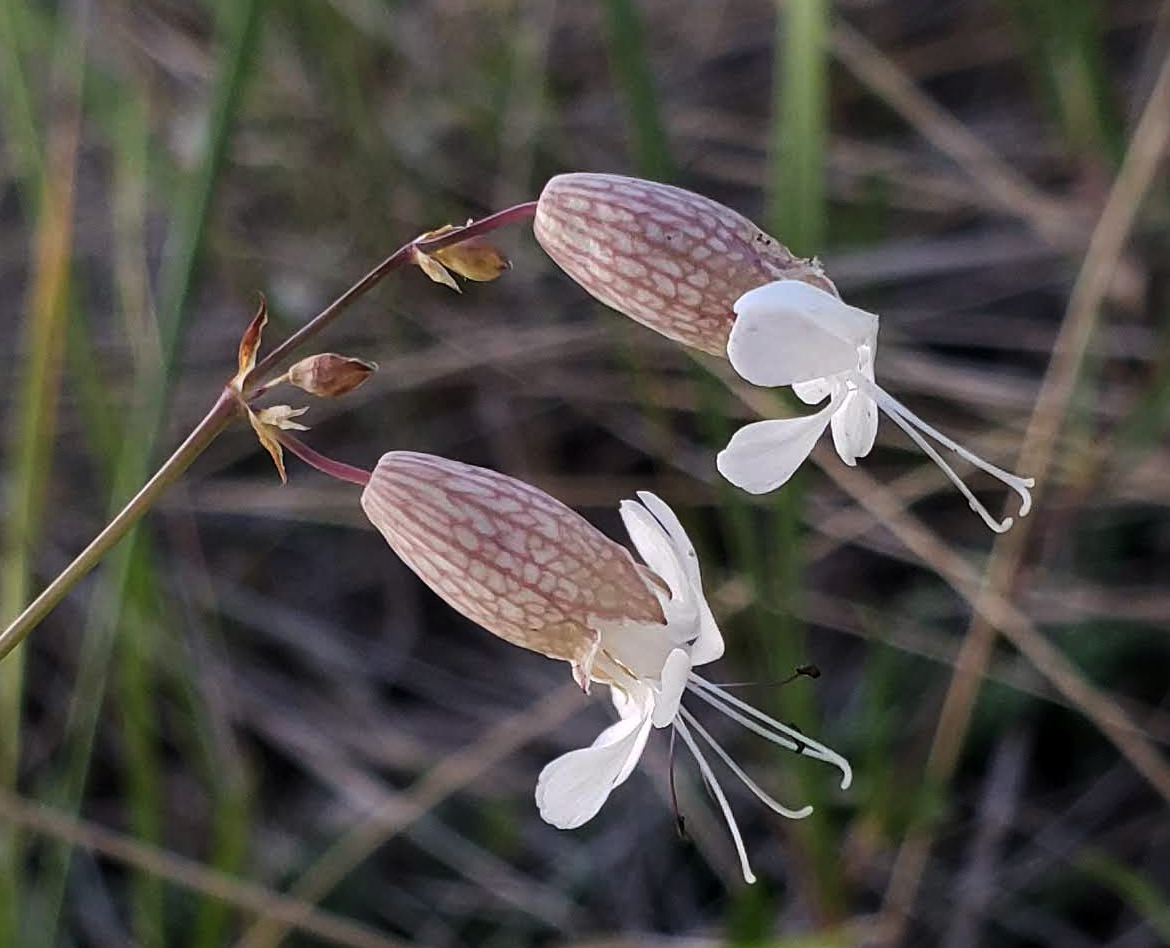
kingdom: Plantae
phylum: Tracheophyta
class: Magnoliopsida
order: Caryophyllales
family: Caryophyllaceae
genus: Silene
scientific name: Silene vulgaris
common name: Bladder campion
